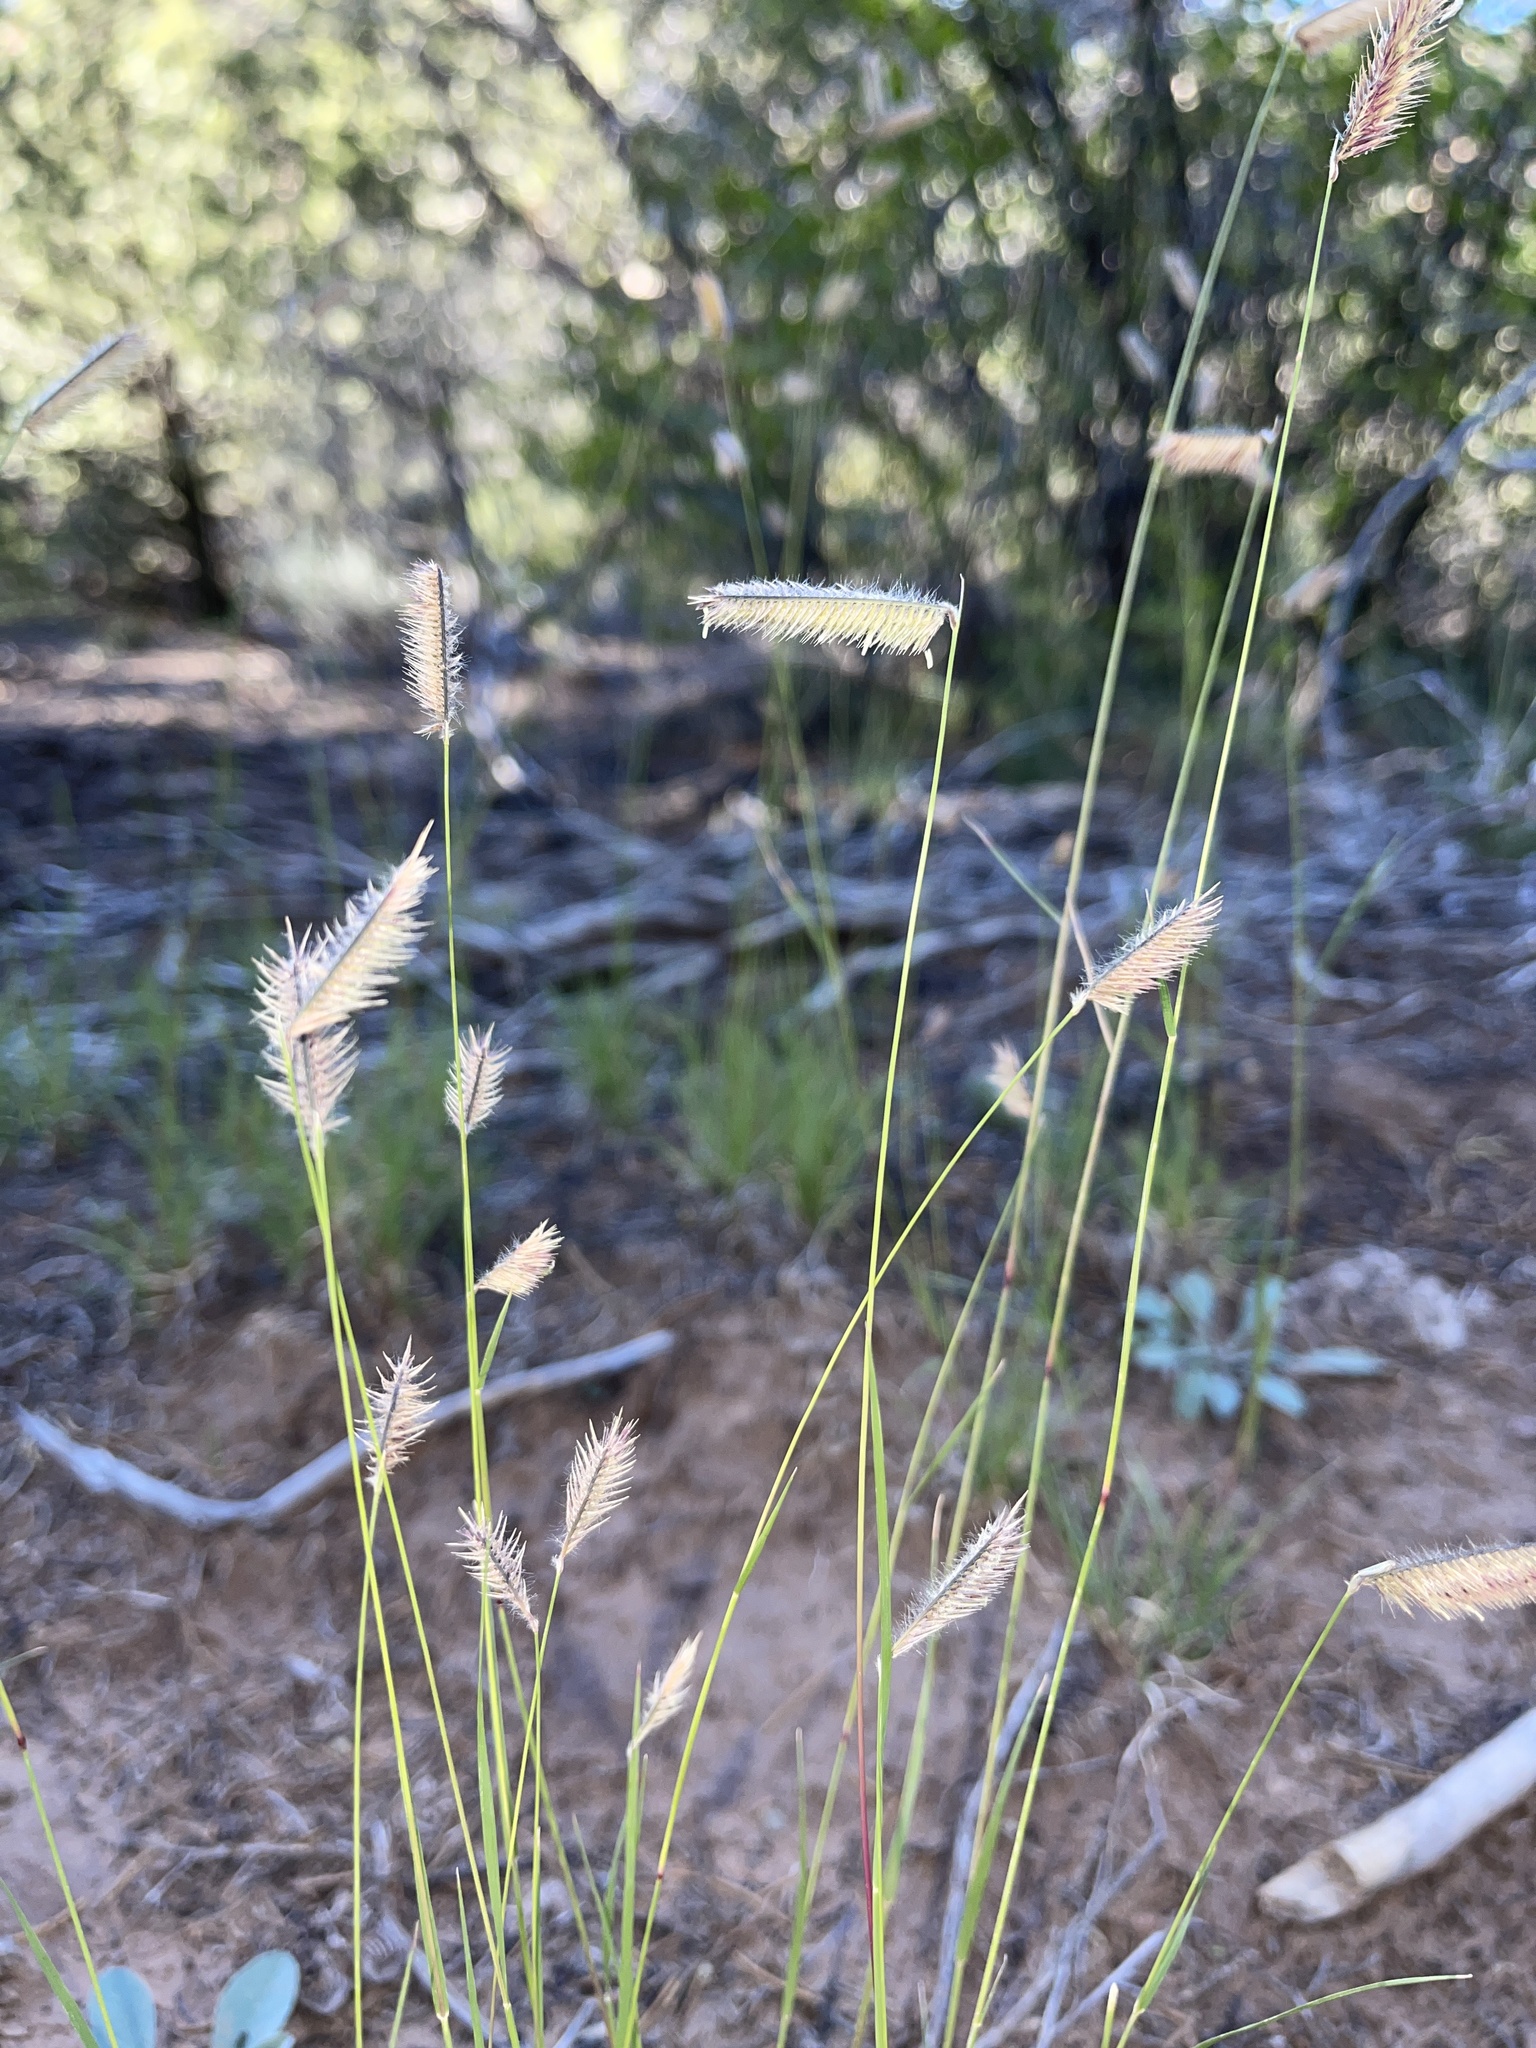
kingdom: Plantae
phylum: Tracheophyta
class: Liliopsida
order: Poales
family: Poaceae
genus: Bouteloua
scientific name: Bouteloua gracilis
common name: Blue grama
